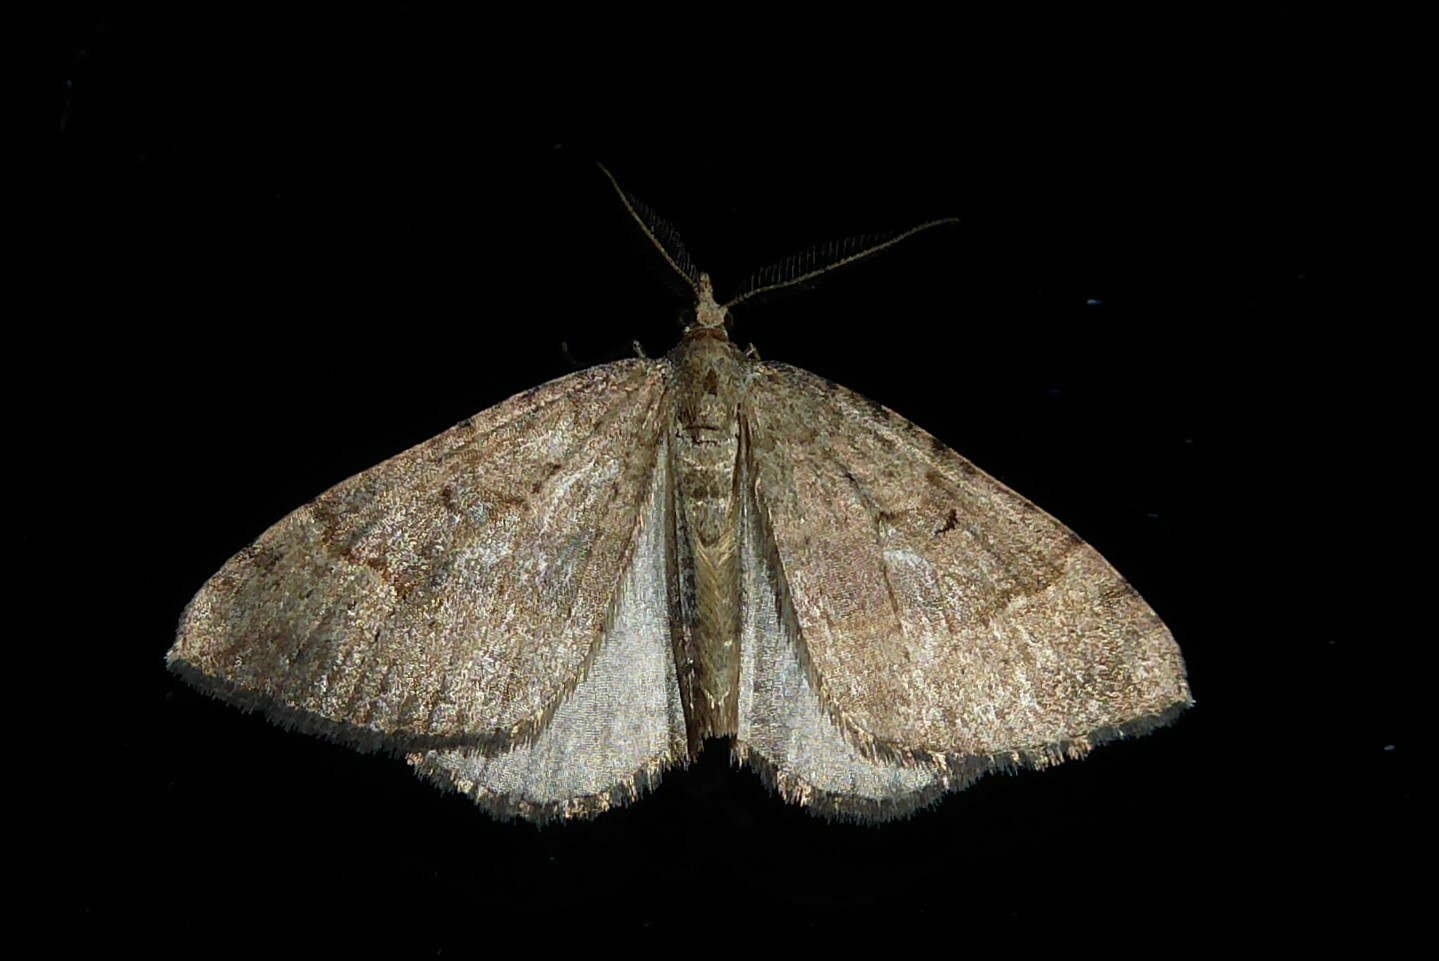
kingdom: Animalia
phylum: Arthropoda
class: Insecta
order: Lepidoptera
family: Geometridae
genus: Epyaxa
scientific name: Epyaxa rosearia
